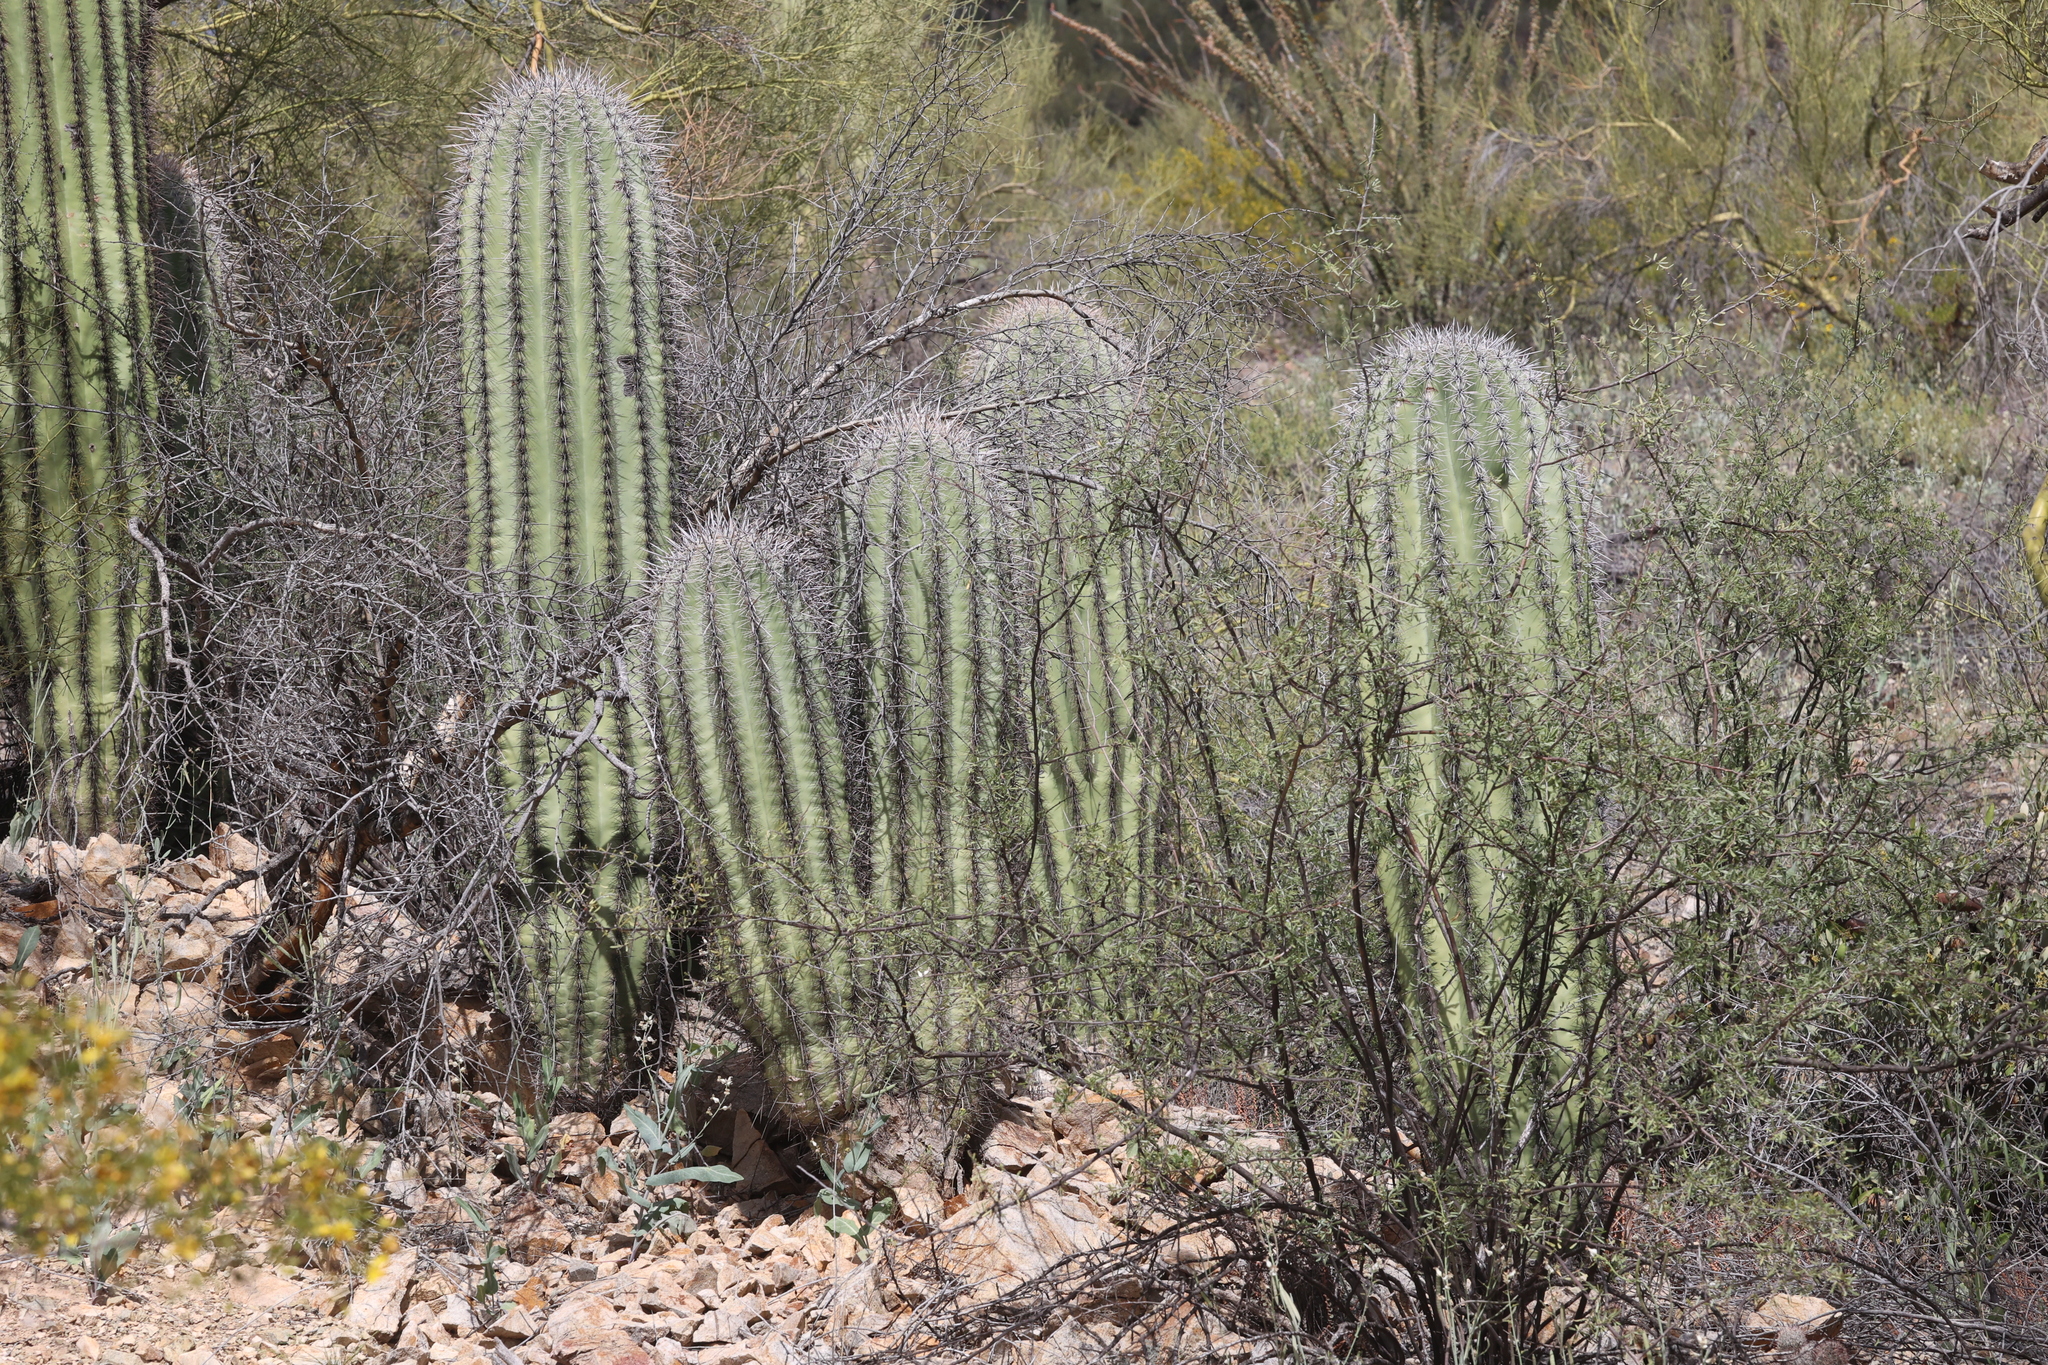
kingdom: Plantae
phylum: Tracheophyta
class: Magnoliopsida
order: Caryophyllales
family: Cactaceae
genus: Carnegiea
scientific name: Carnegiea gigantea
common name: Saguaro
